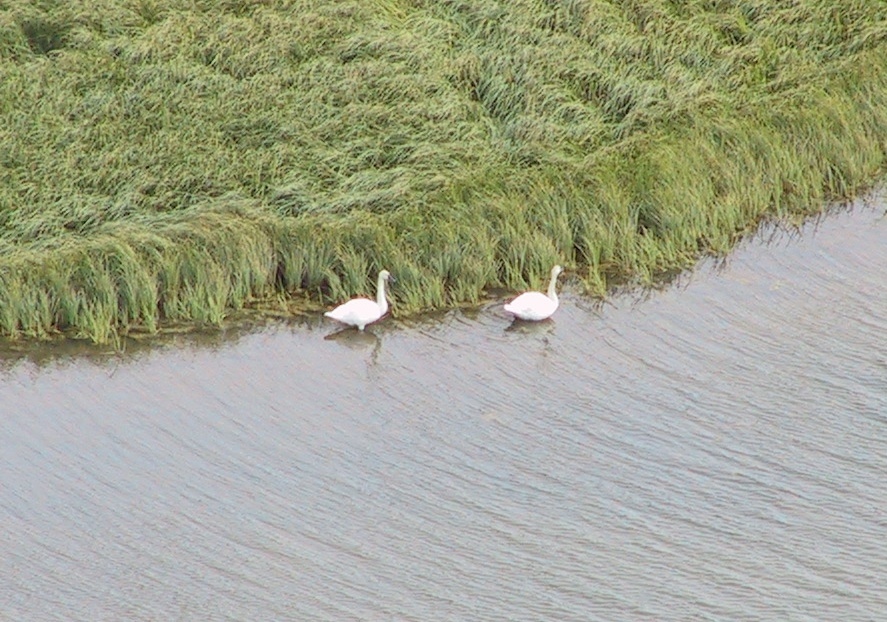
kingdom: Animalia
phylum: Chordata
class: Aves
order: Anseriformes
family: Anatidae
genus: Cygnus
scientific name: Cygnus columbianus
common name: Tundra swan
